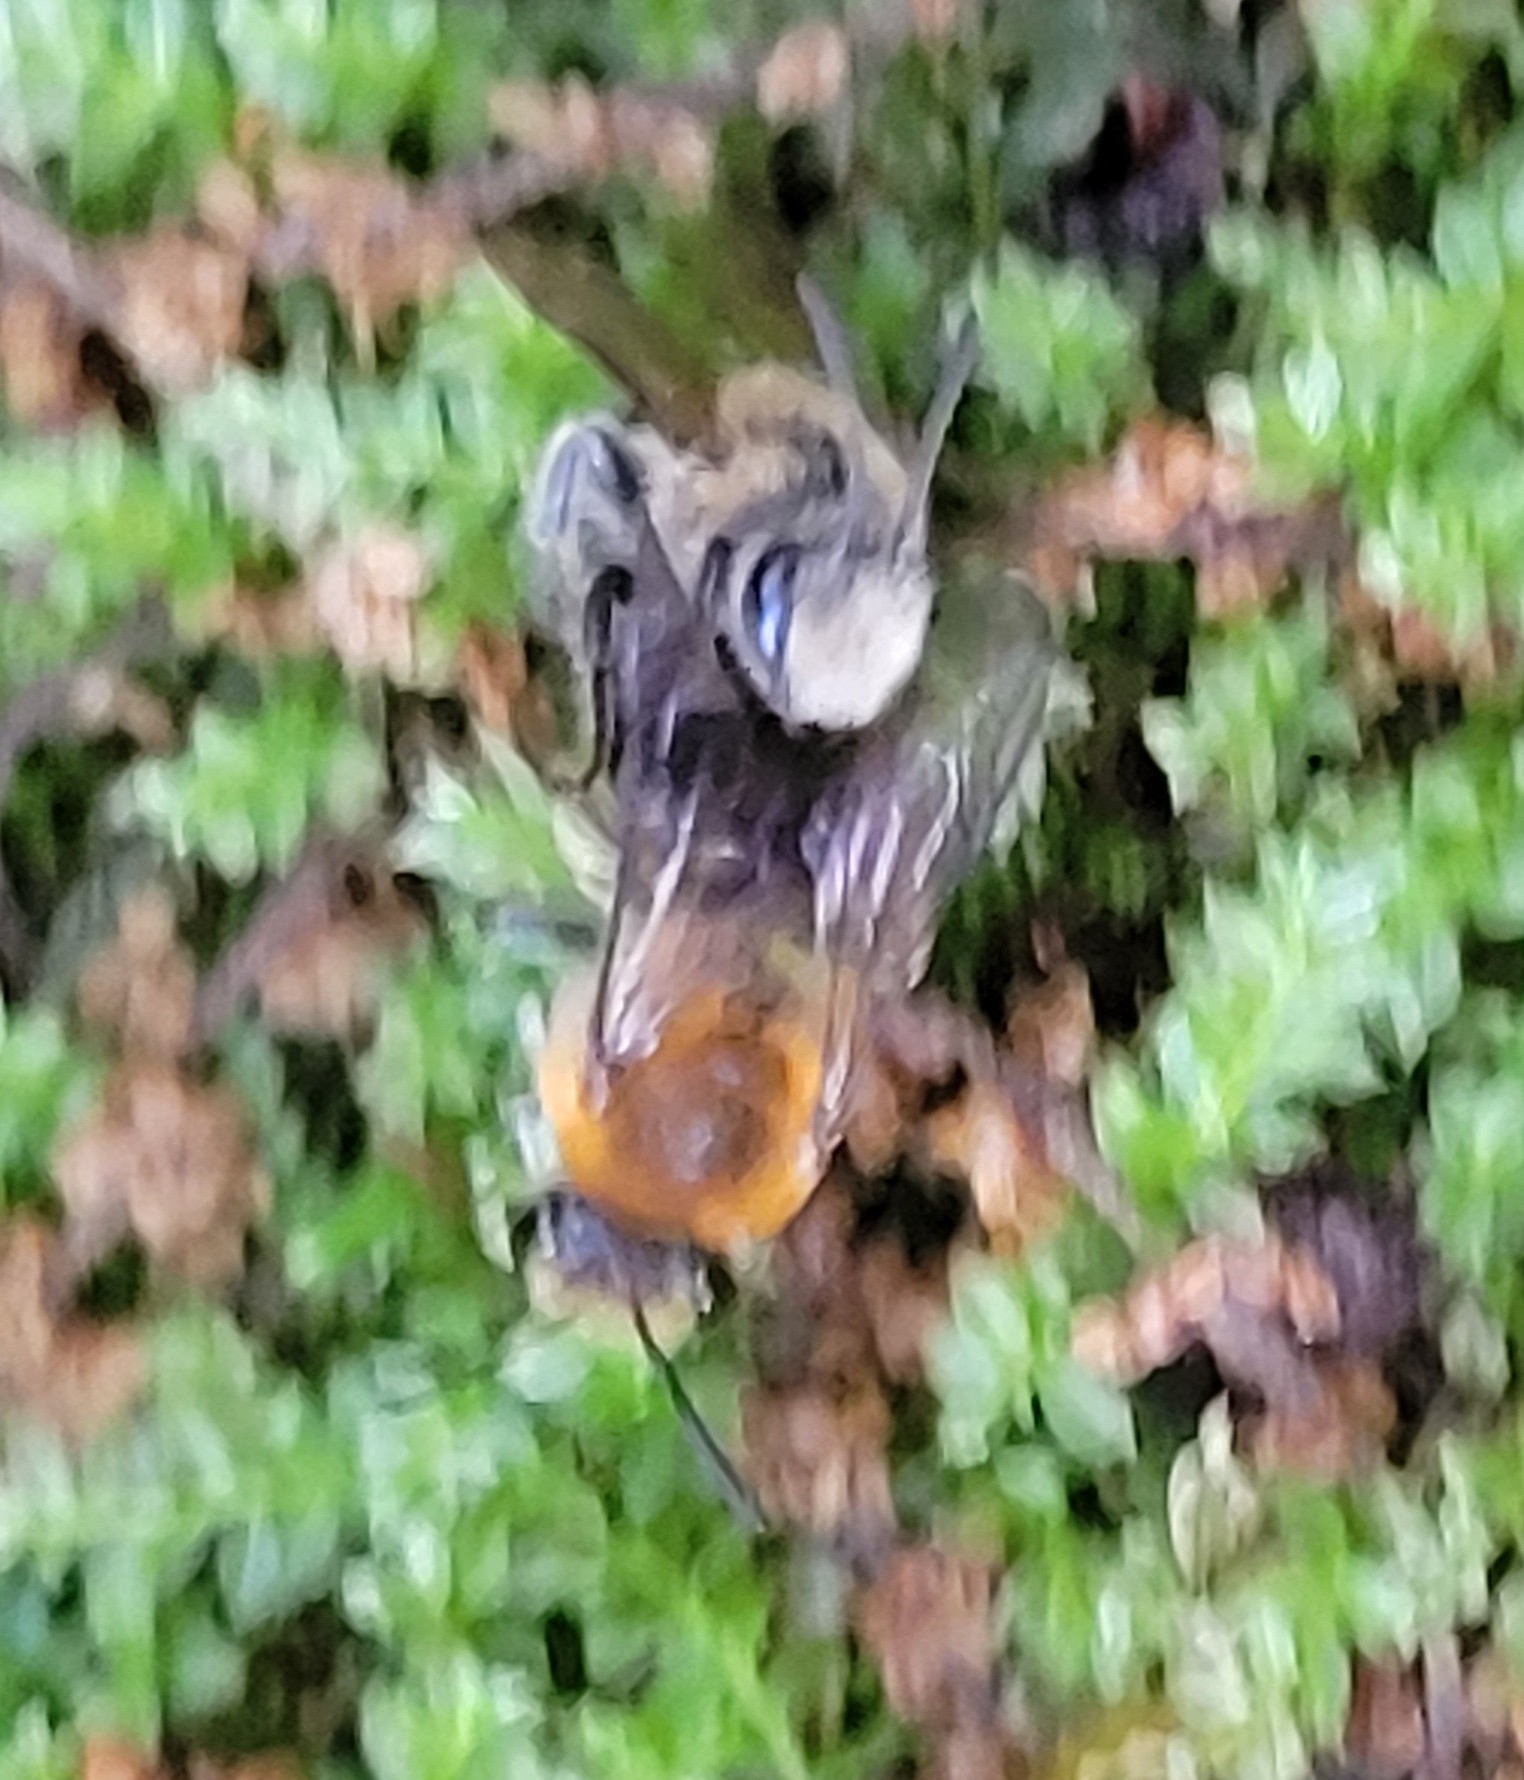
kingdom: Animalia
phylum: Arthropoda
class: Insecta
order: Hymenoptera
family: Colletidae
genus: Colletes
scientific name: Colletes thoracicus
